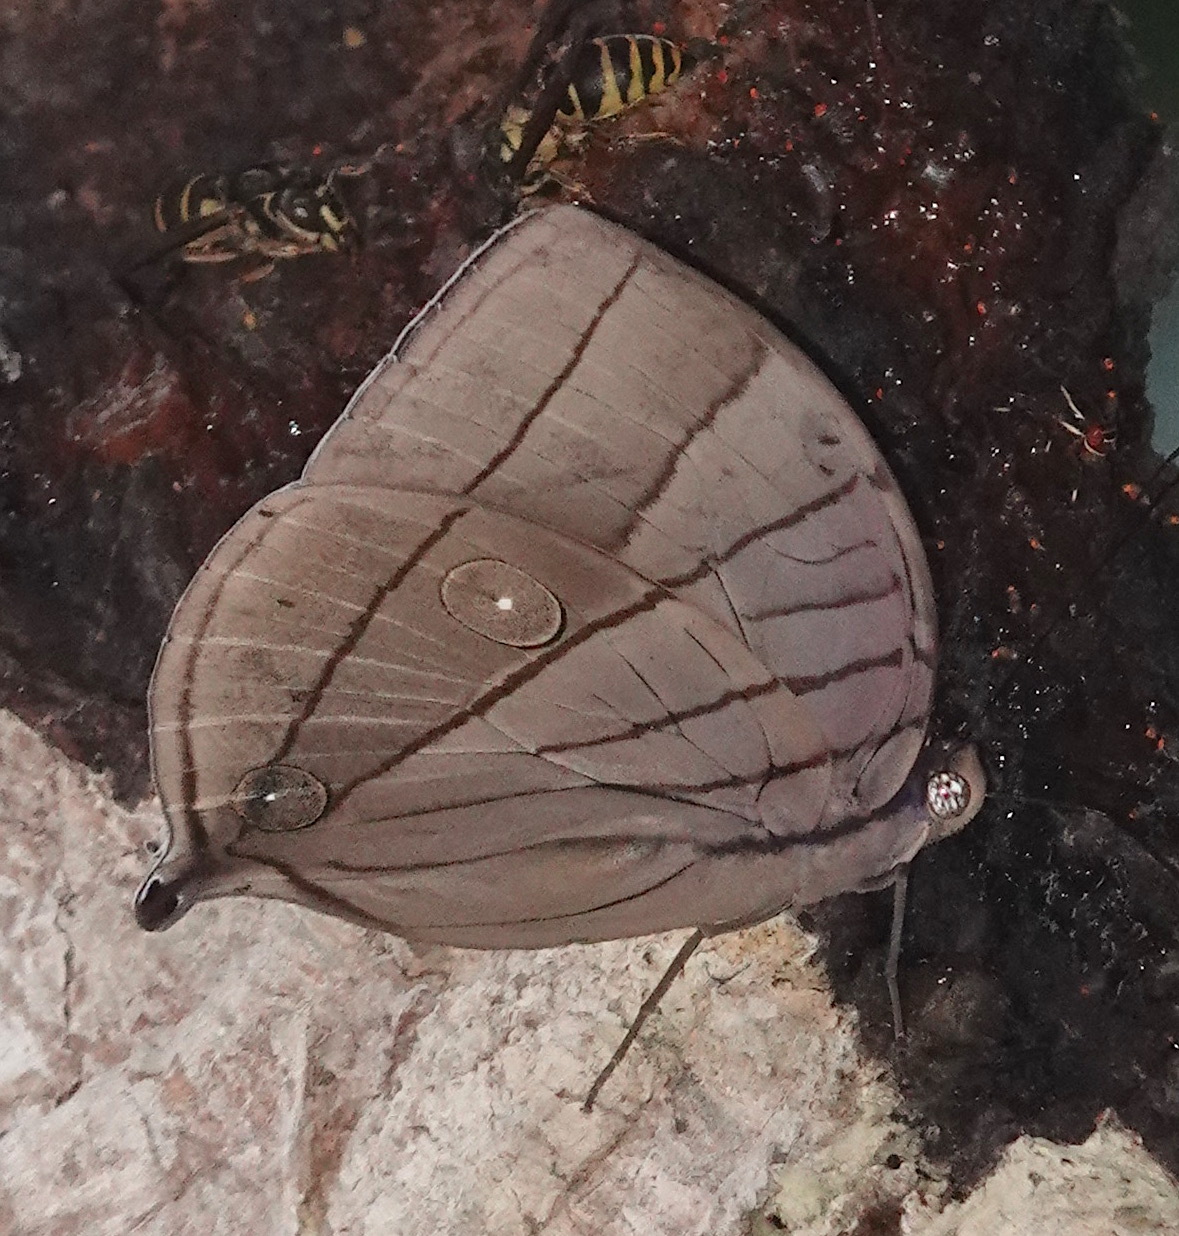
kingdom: Animalia
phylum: Arthropoda
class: Insecta
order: Lepidoptera
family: Nymphalidae
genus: Amathuxidia
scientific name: Amathuxidia amythaon
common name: Koh-i-noor
